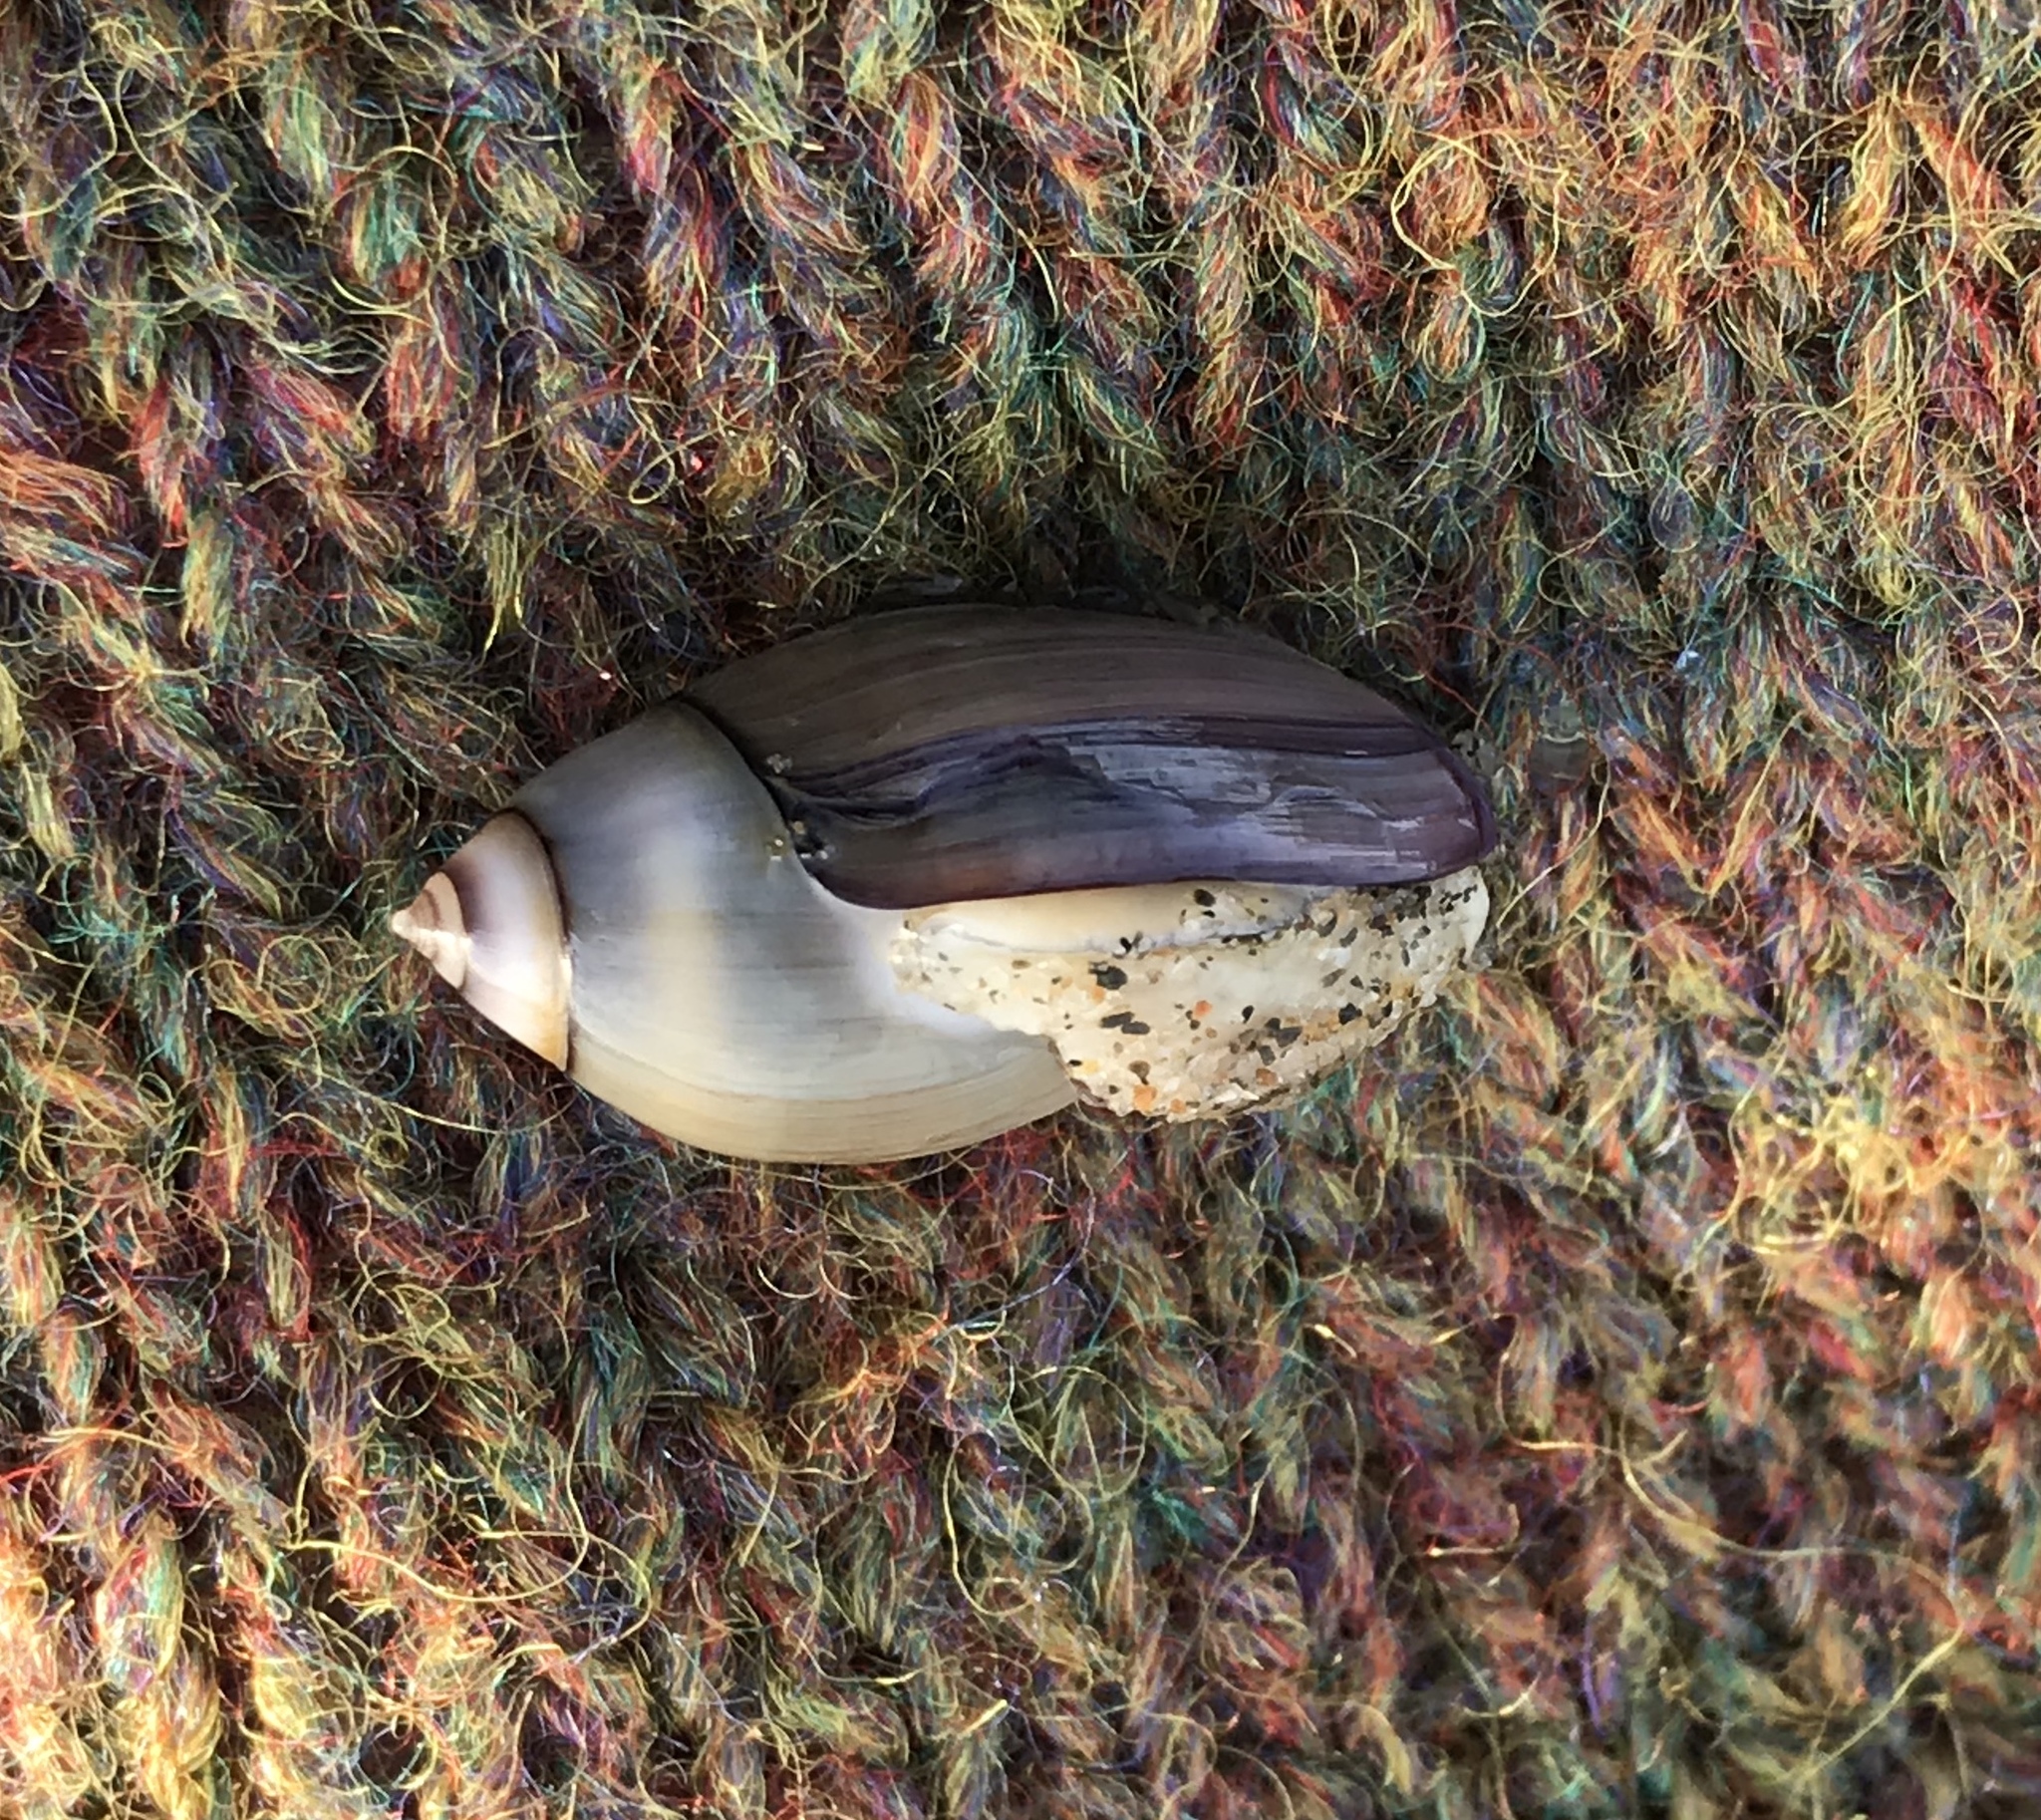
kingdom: Animalia
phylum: Mollusca
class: Gastropoda
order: Neogastropoda
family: Olividae
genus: Callianax
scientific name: Callianax biplicata
